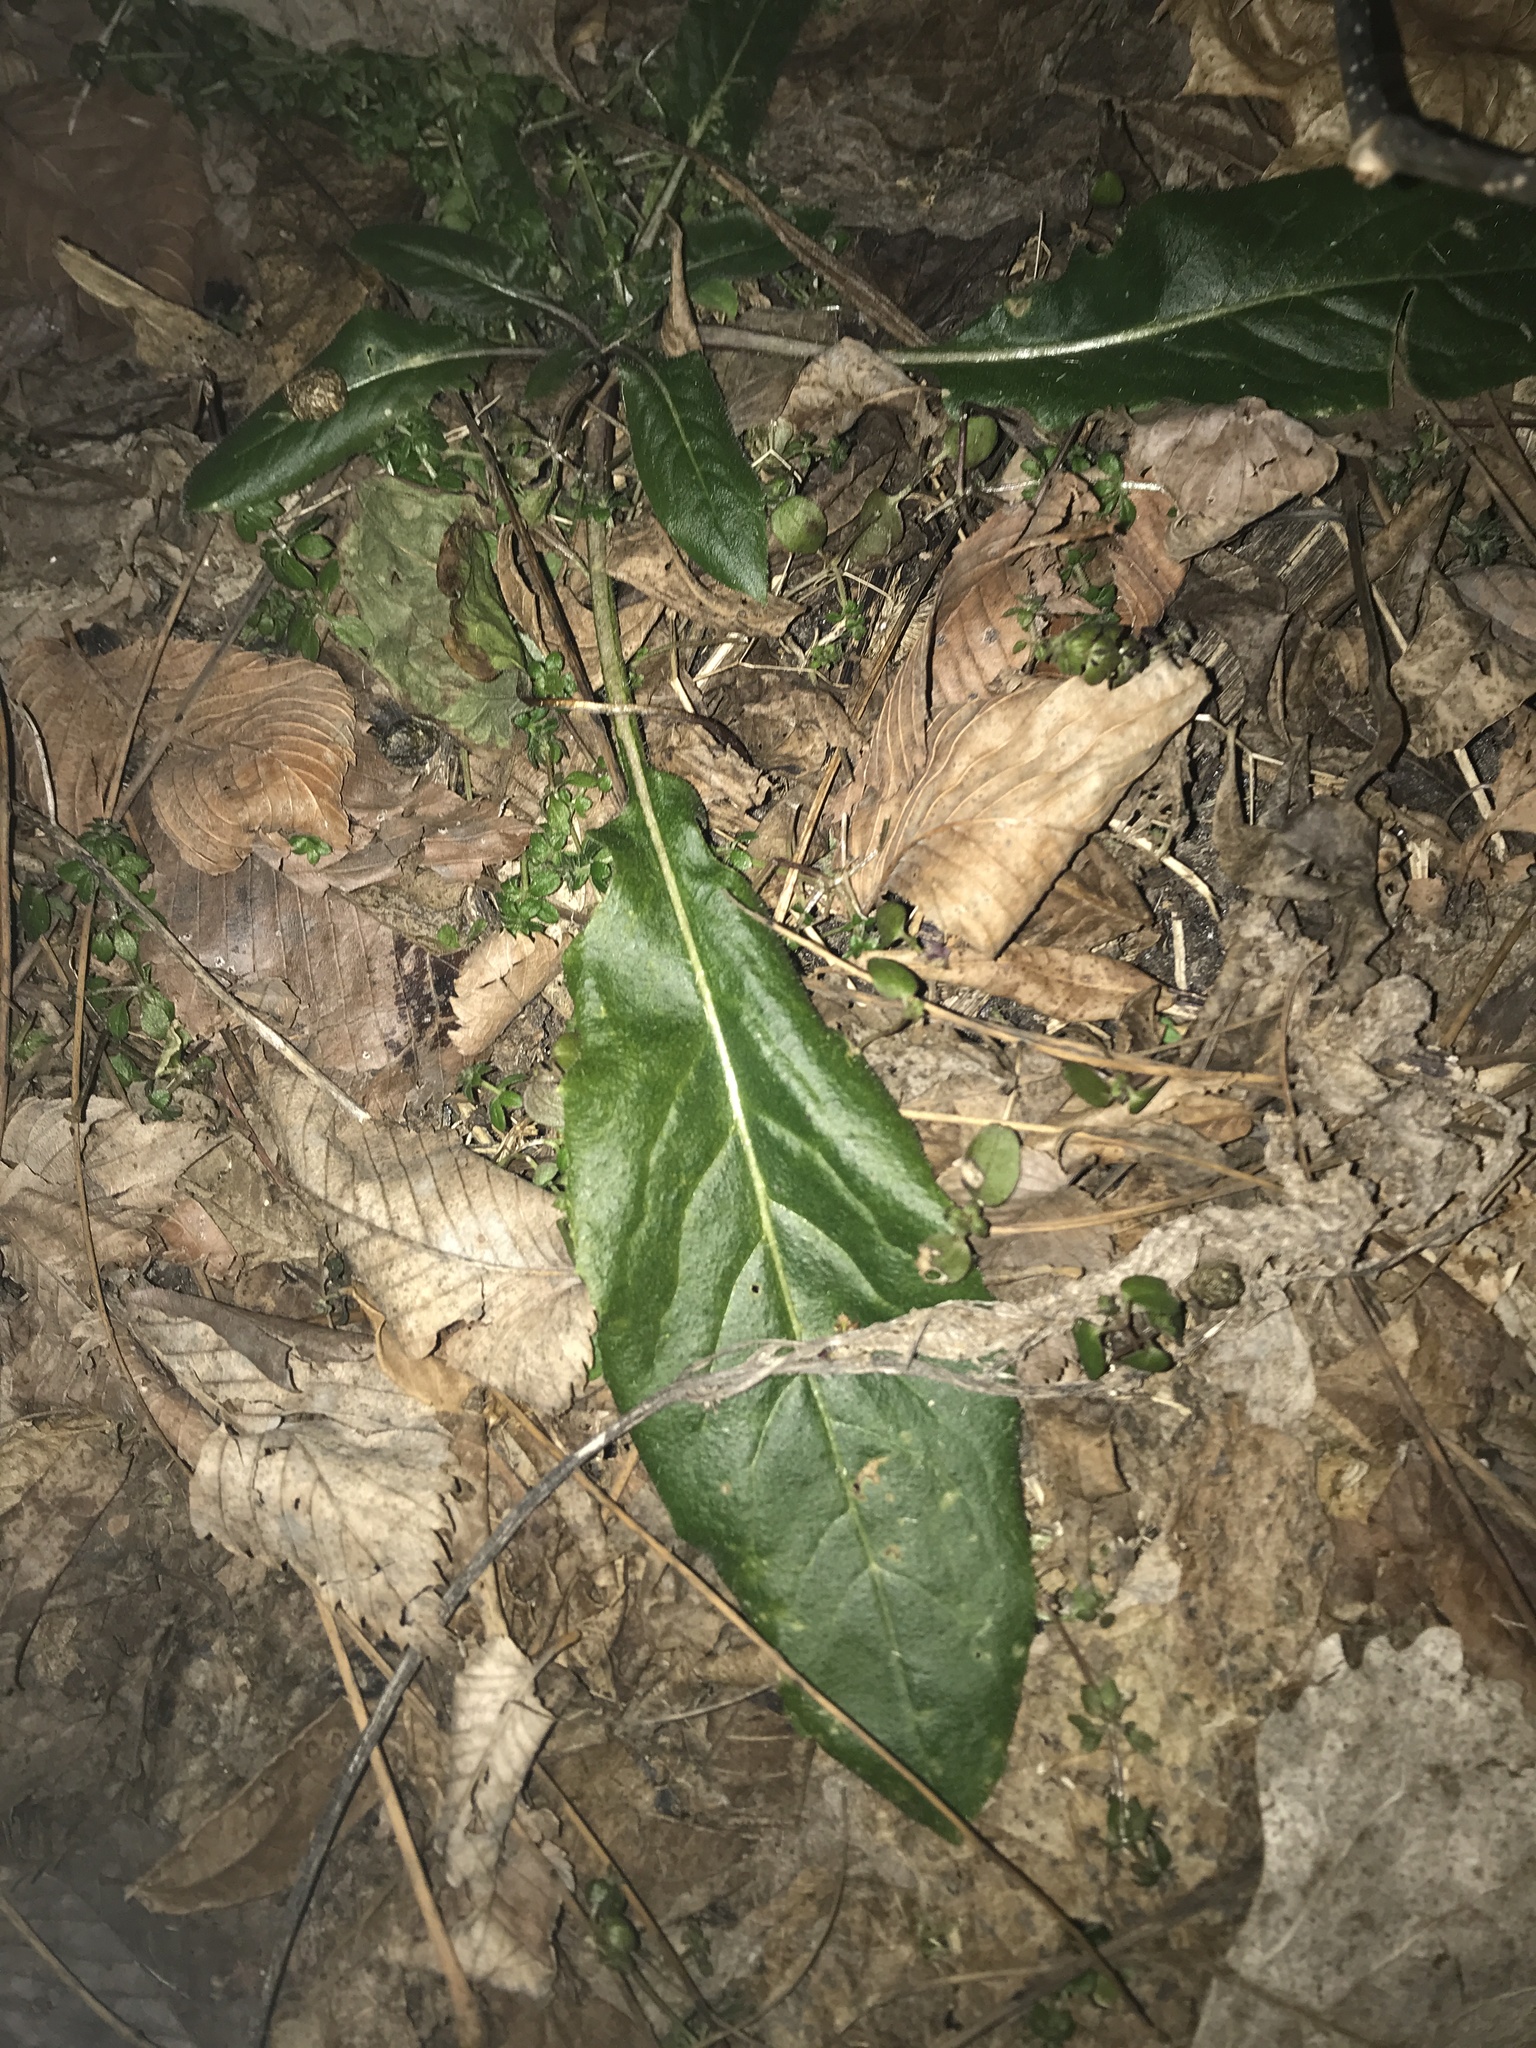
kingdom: Plantae
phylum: Tracheophyta
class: Magnoliopsida
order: Brassicales
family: Brassicaceae
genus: Hesperis
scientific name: Hesperis matronalis
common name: Dame's-violet
